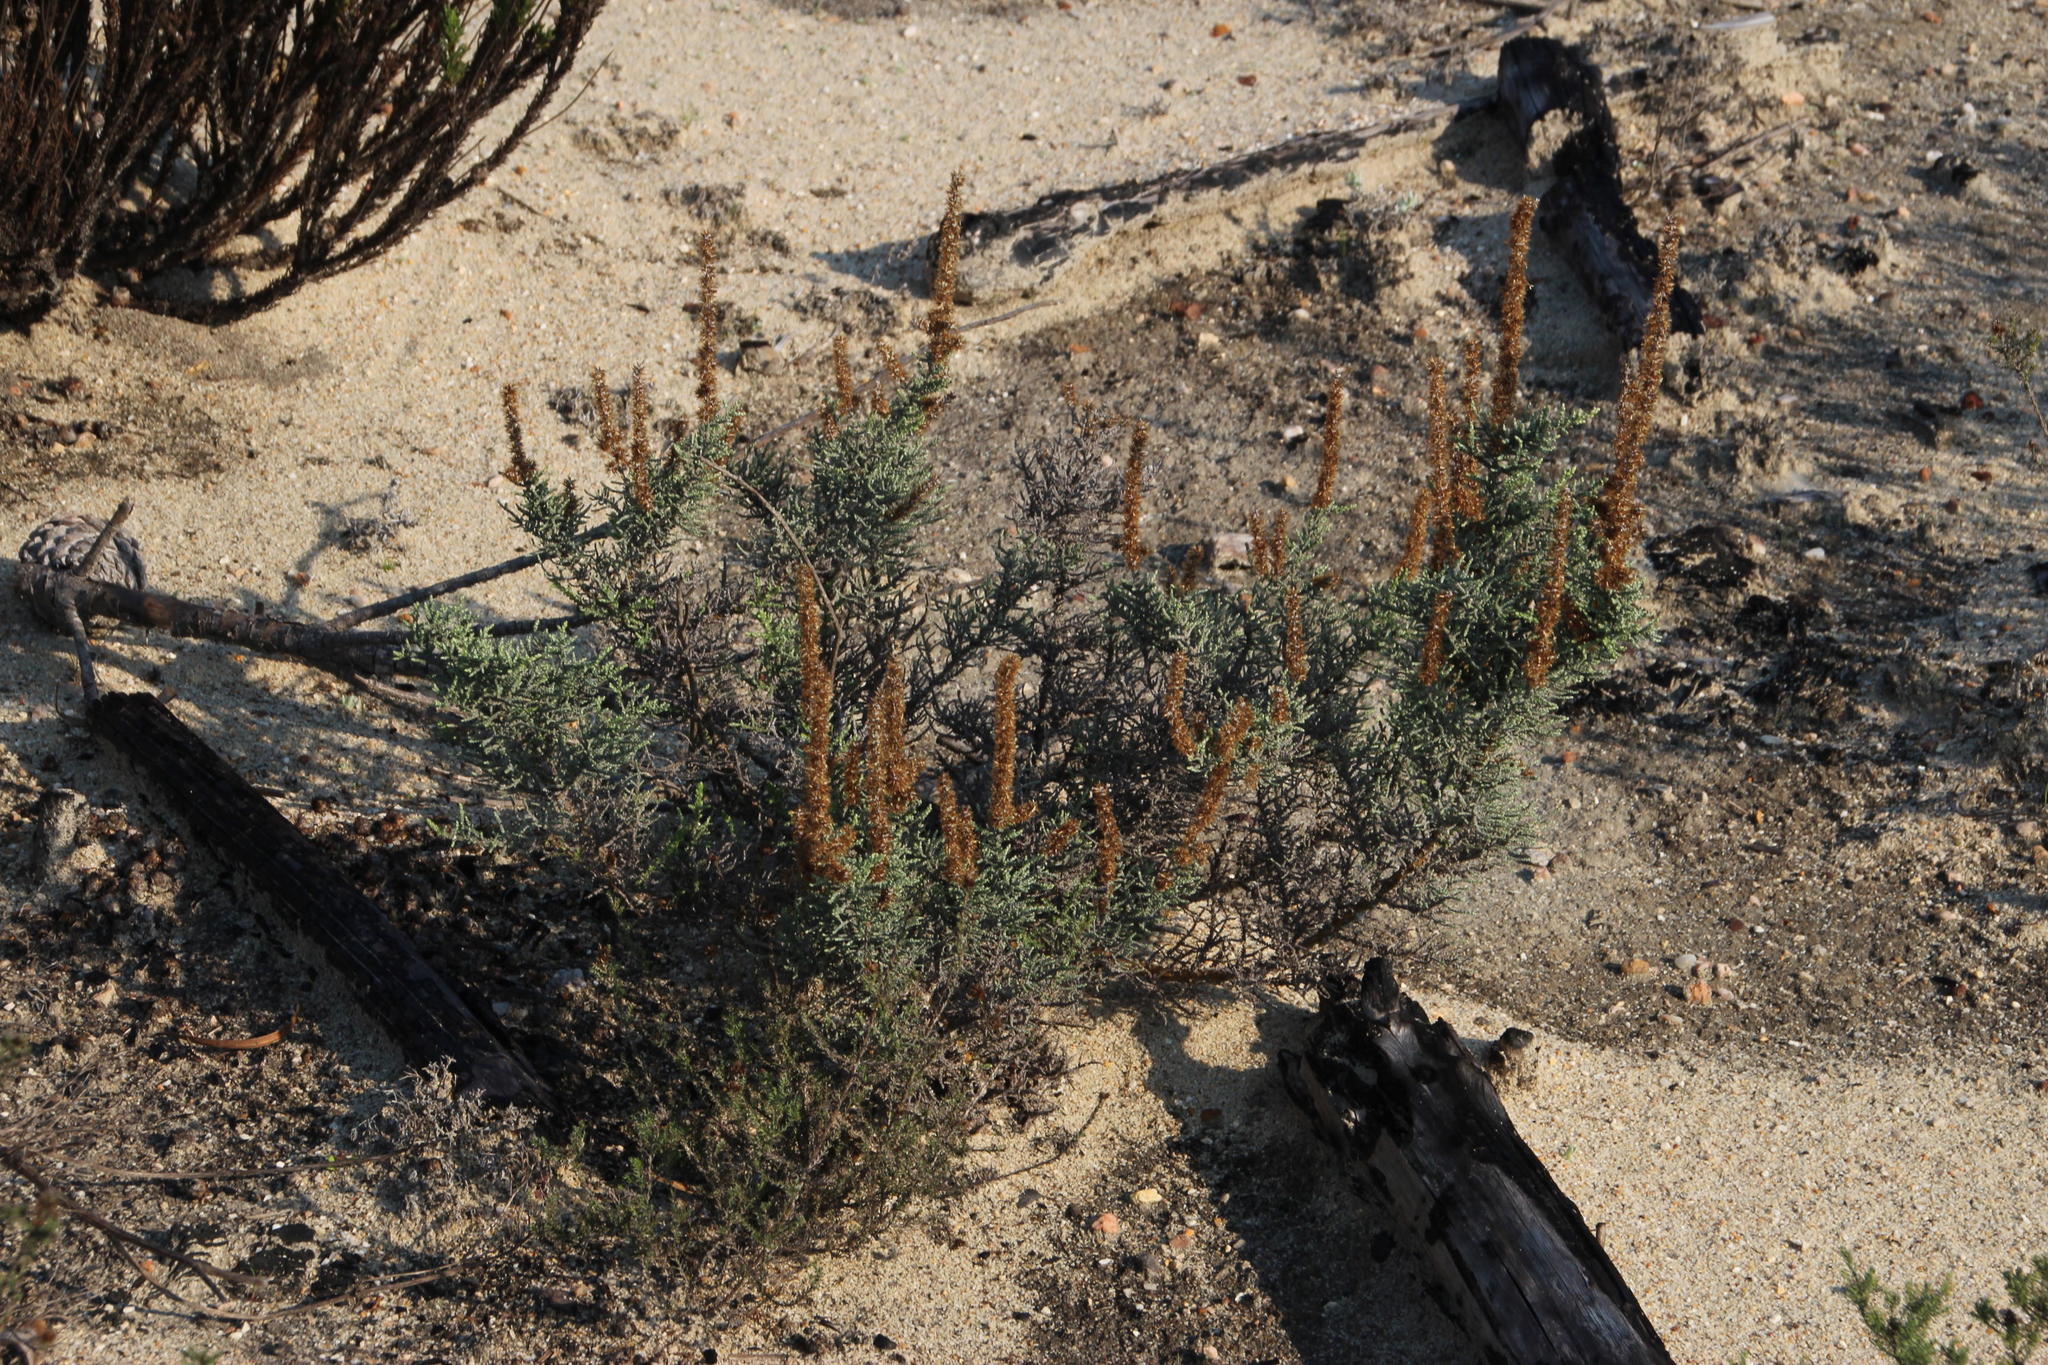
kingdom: Plantae
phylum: Tracheophyta
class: Magnoliopsida
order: Asterales
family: Asteraceae
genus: Seriphium
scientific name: Seriphium plumosum
